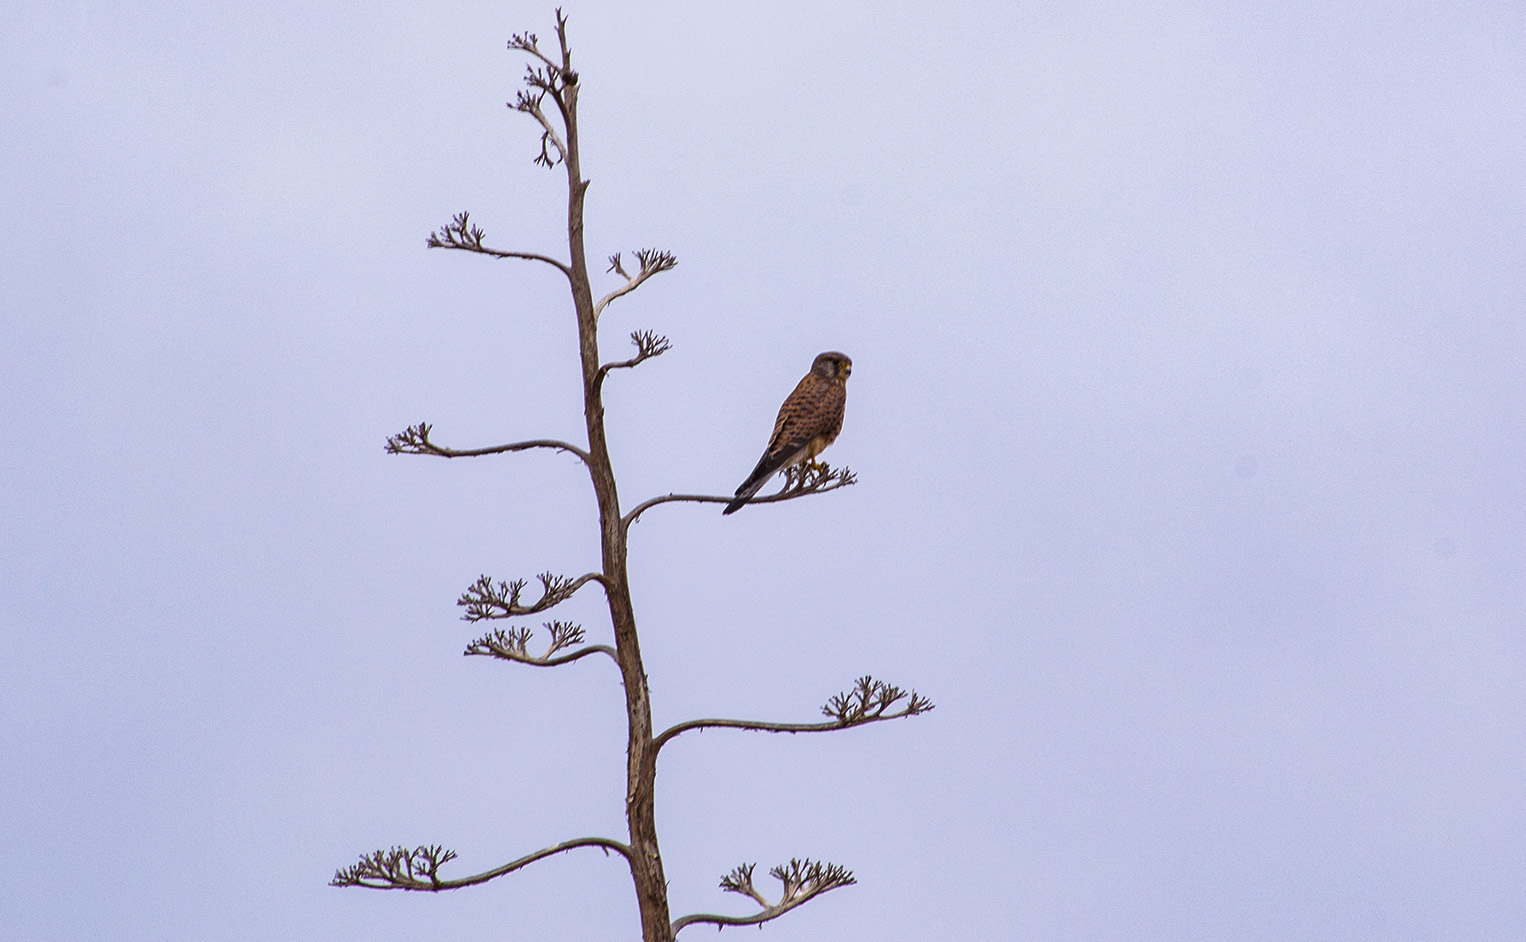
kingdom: Animalia
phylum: Chordata
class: Aves
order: Falconiformes
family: Falconidae
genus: Falco
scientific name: Falco tinnunculus
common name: Common kestrel
